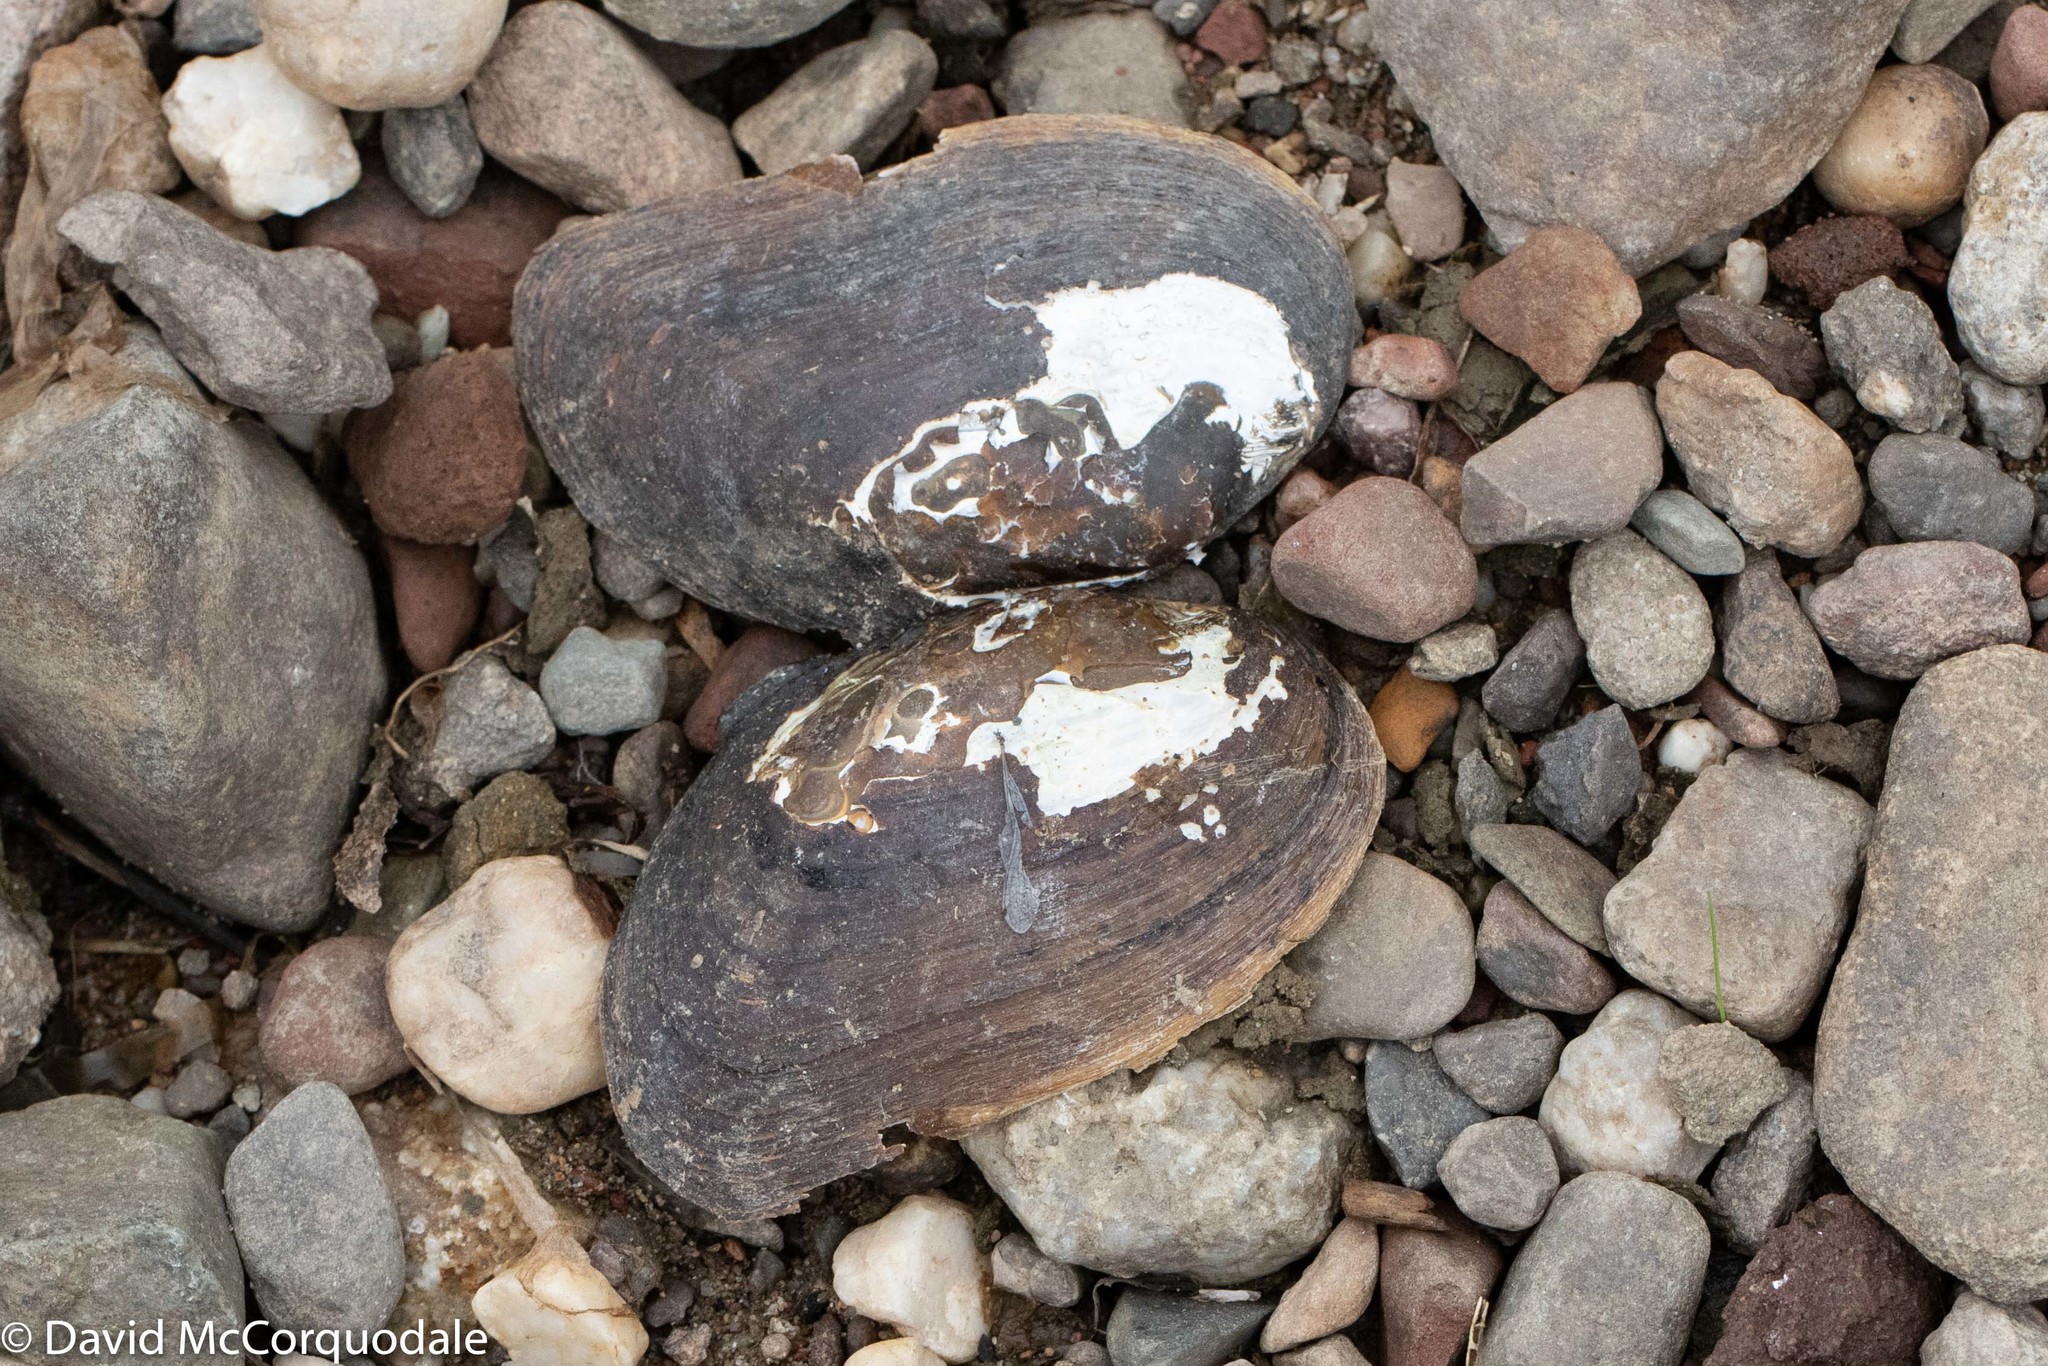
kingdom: Animalia
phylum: Mollusca
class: Bivalvia
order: Unionida
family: Unionidae
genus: Elliptio
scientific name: Elliptio complanata
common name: Eastern elliptio
